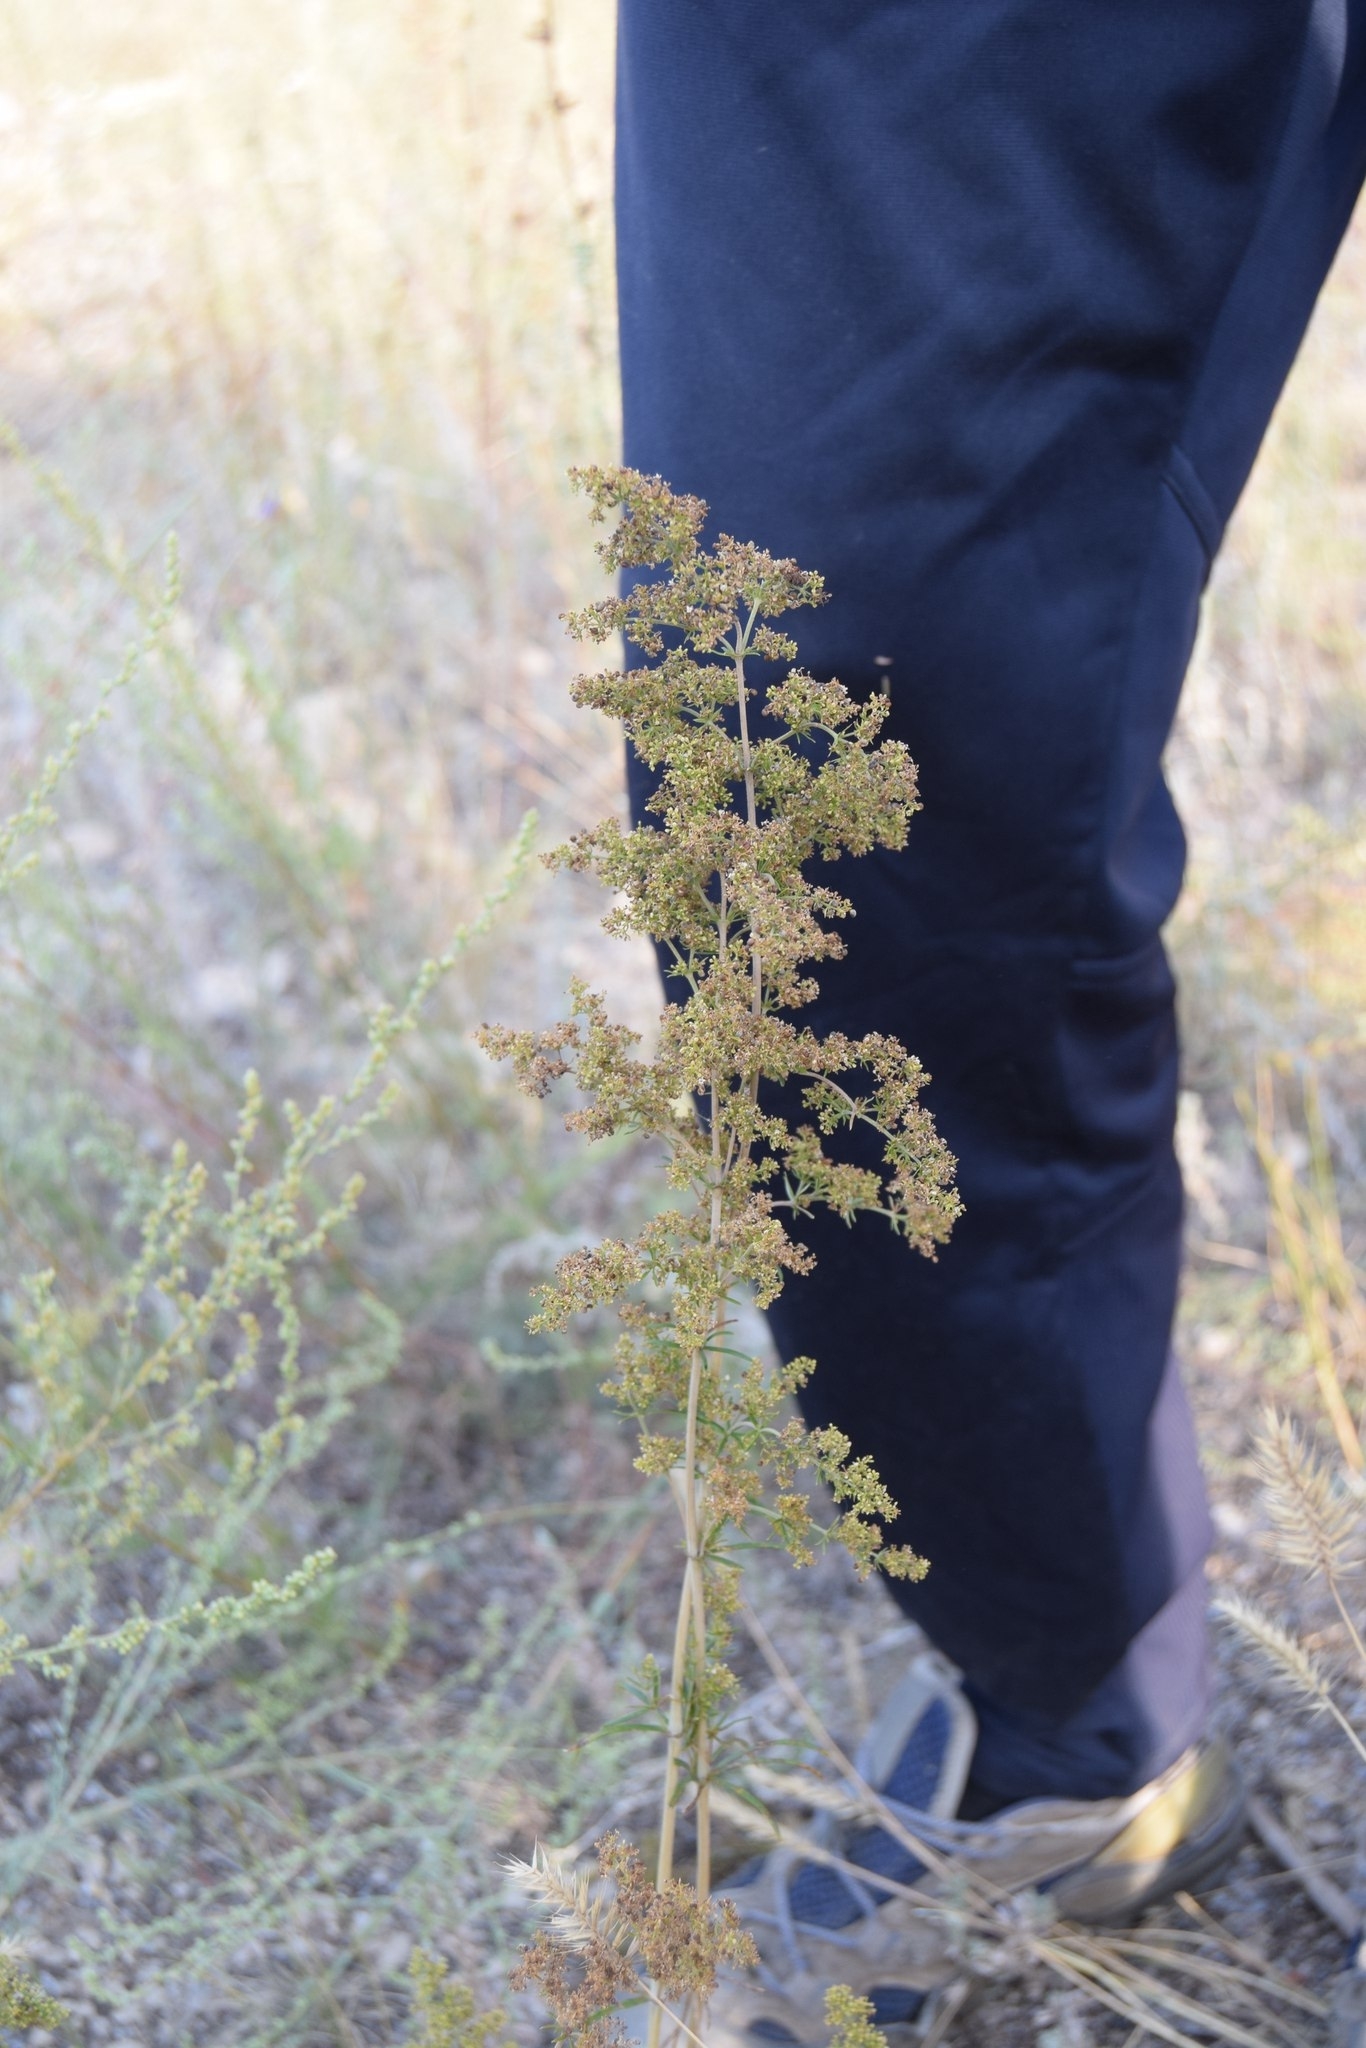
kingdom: Plantae
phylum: Tracheophyta
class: Magnoliopsida
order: Gentianales
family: Rubiaceae
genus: Galium
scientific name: Galium verum
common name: Lady's bedstraw
